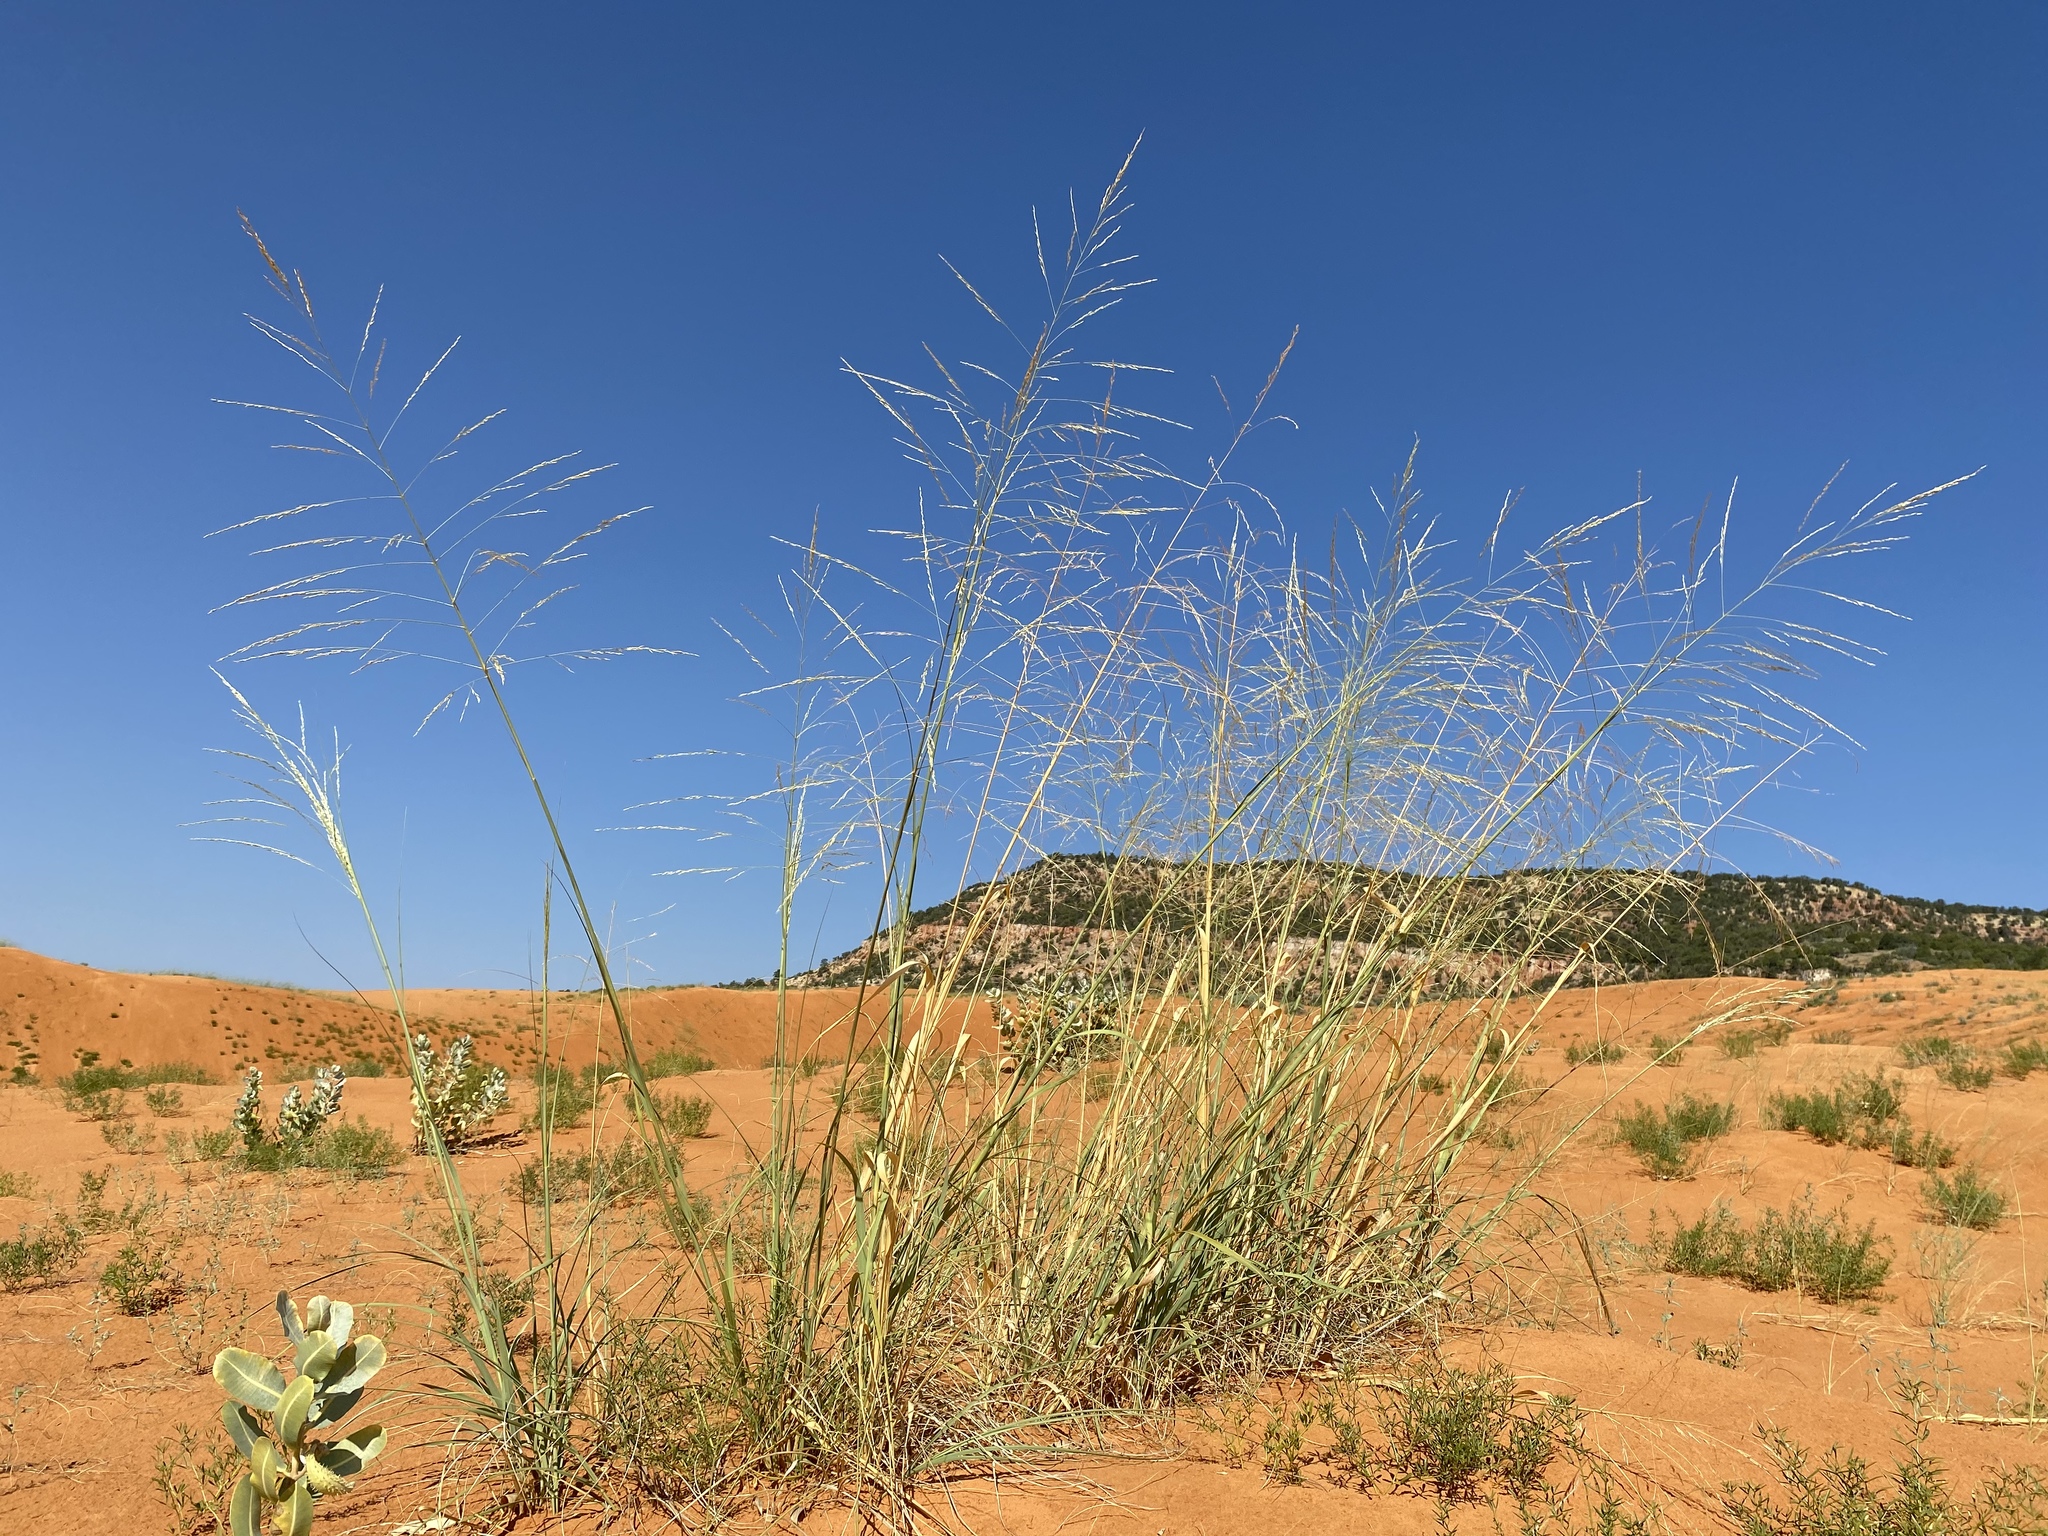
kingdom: Plantae
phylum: Tracheophyta
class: Liliopsida
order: Poales
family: Poaceae
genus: Sporobolus
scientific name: Sporobolus arenicola
